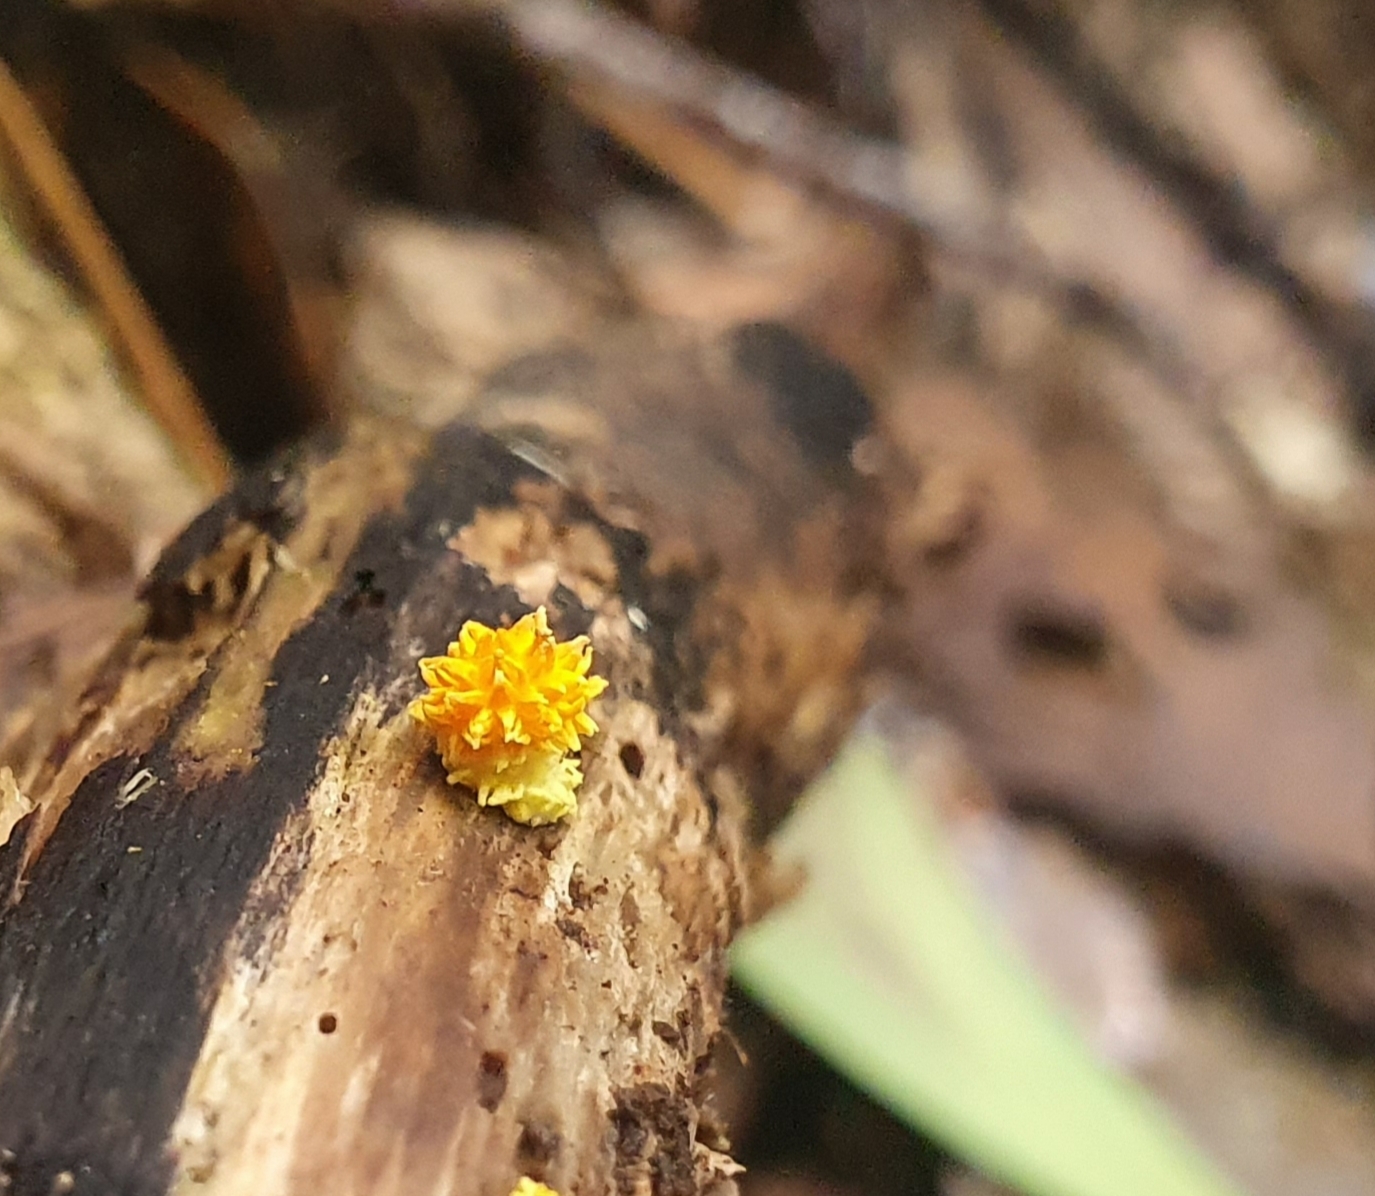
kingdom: Fungi
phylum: Basidiomycota
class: Agaricomycetes
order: Agaricales
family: Physalacriaceae
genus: Cyptotrama
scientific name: Cyptotrama asprata
